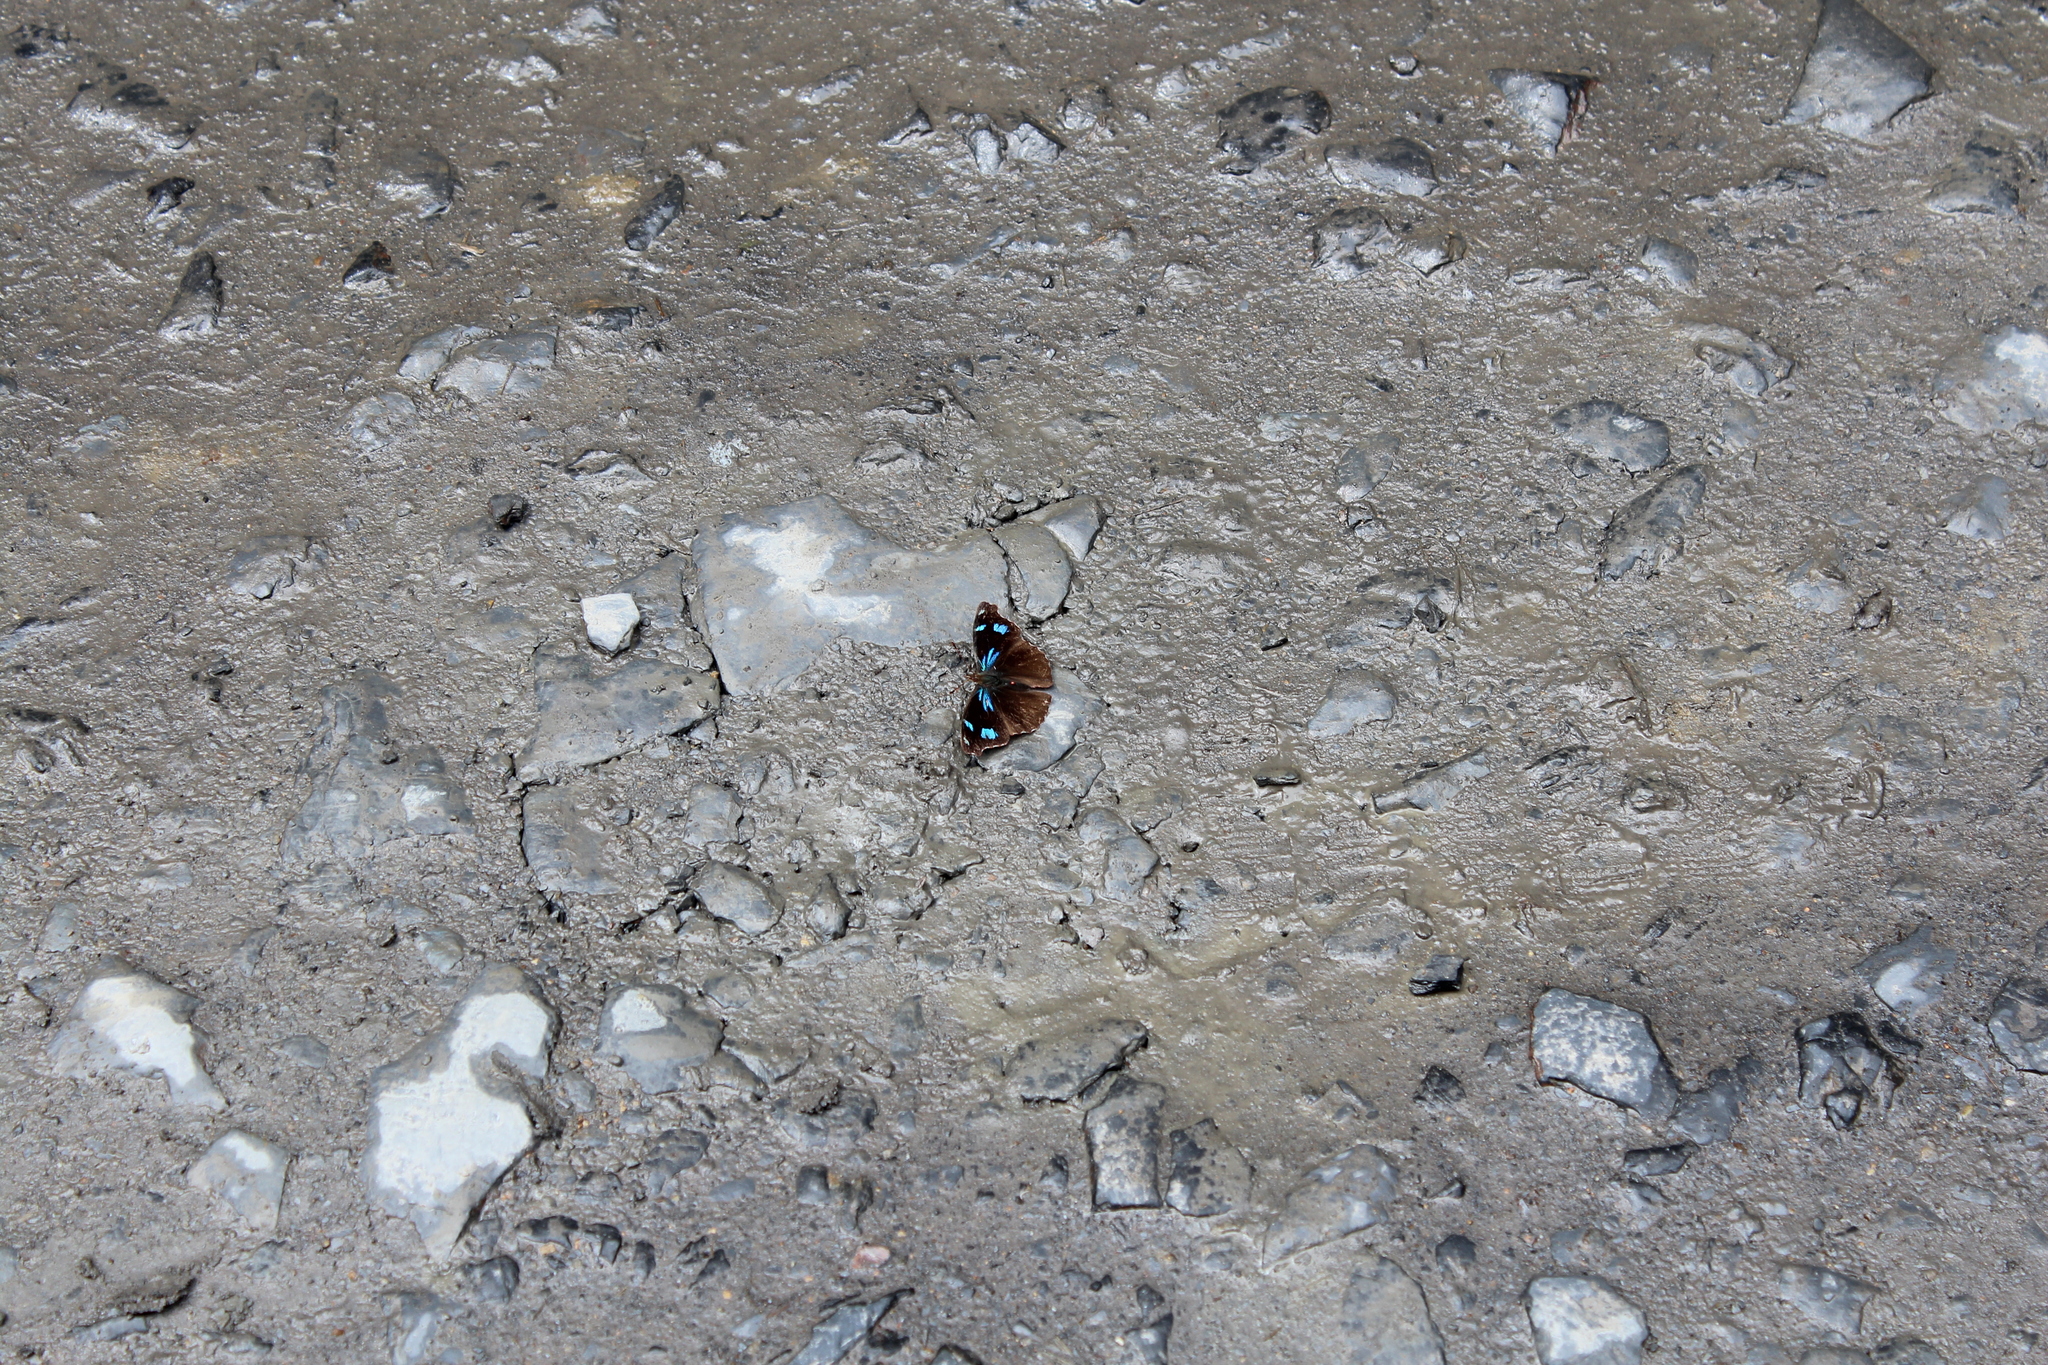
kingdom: Animalia
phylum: Arthropoda
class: Insecta
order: Lepidoptera
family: Nymphalidae
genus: Perisama
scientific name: Perisama diotima
